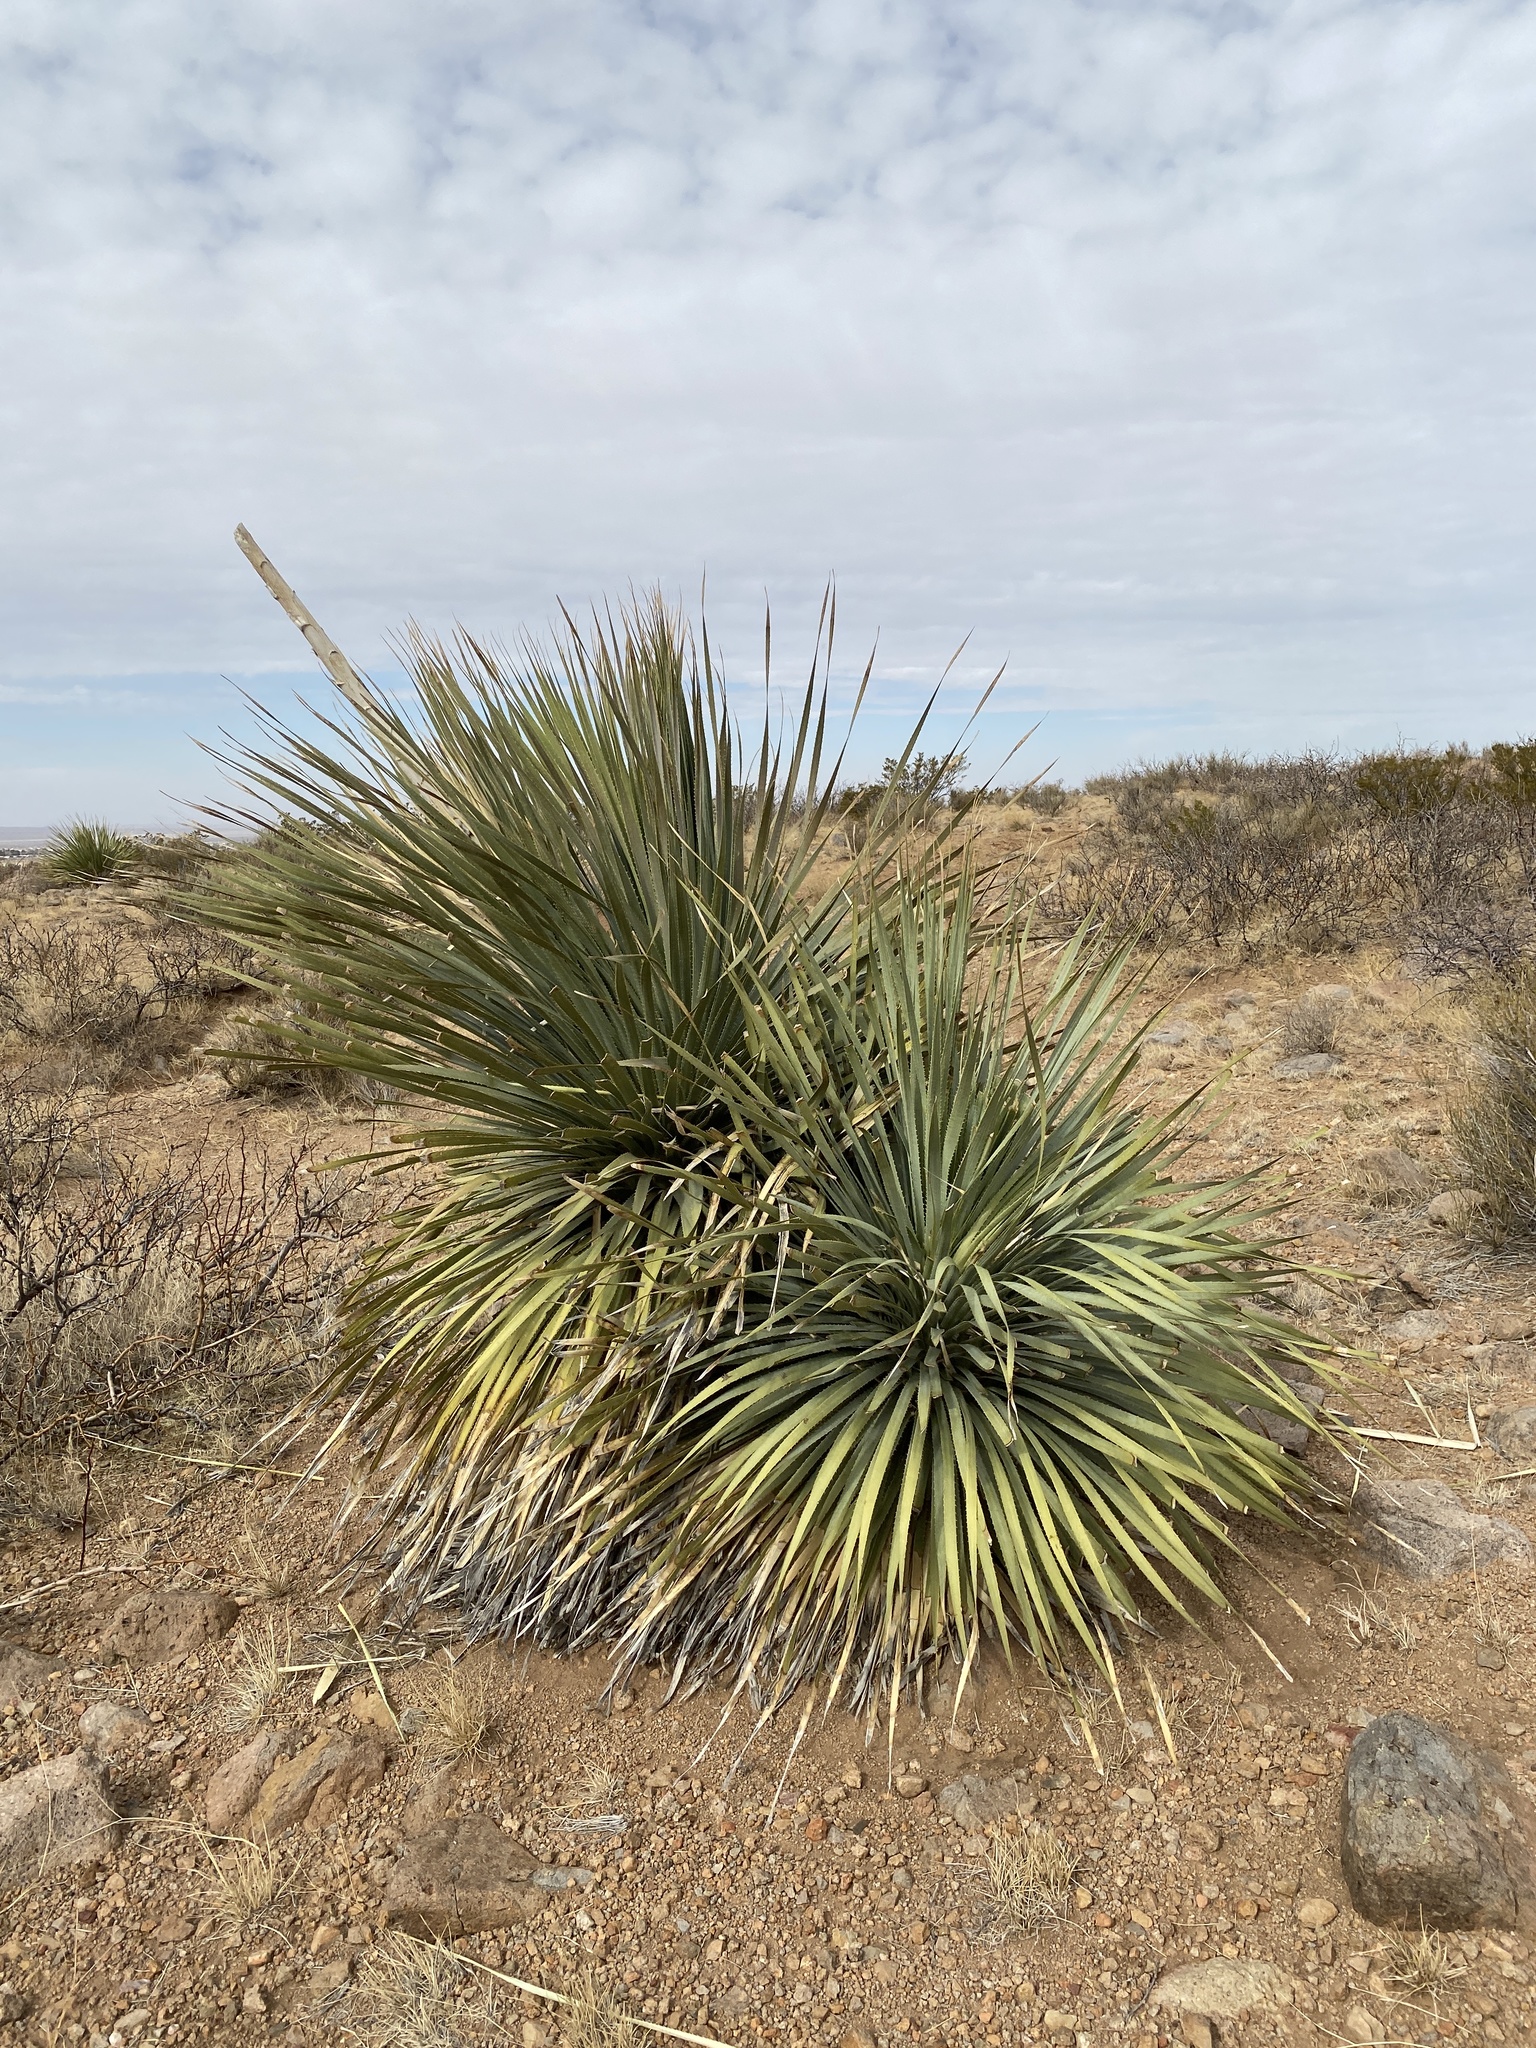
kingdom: Plantae
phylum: Tracheophyta
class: Liliopsida
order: Asparagales
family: Asparagaceae
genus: Dasylirion
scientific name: Dasylirion wheeleri
